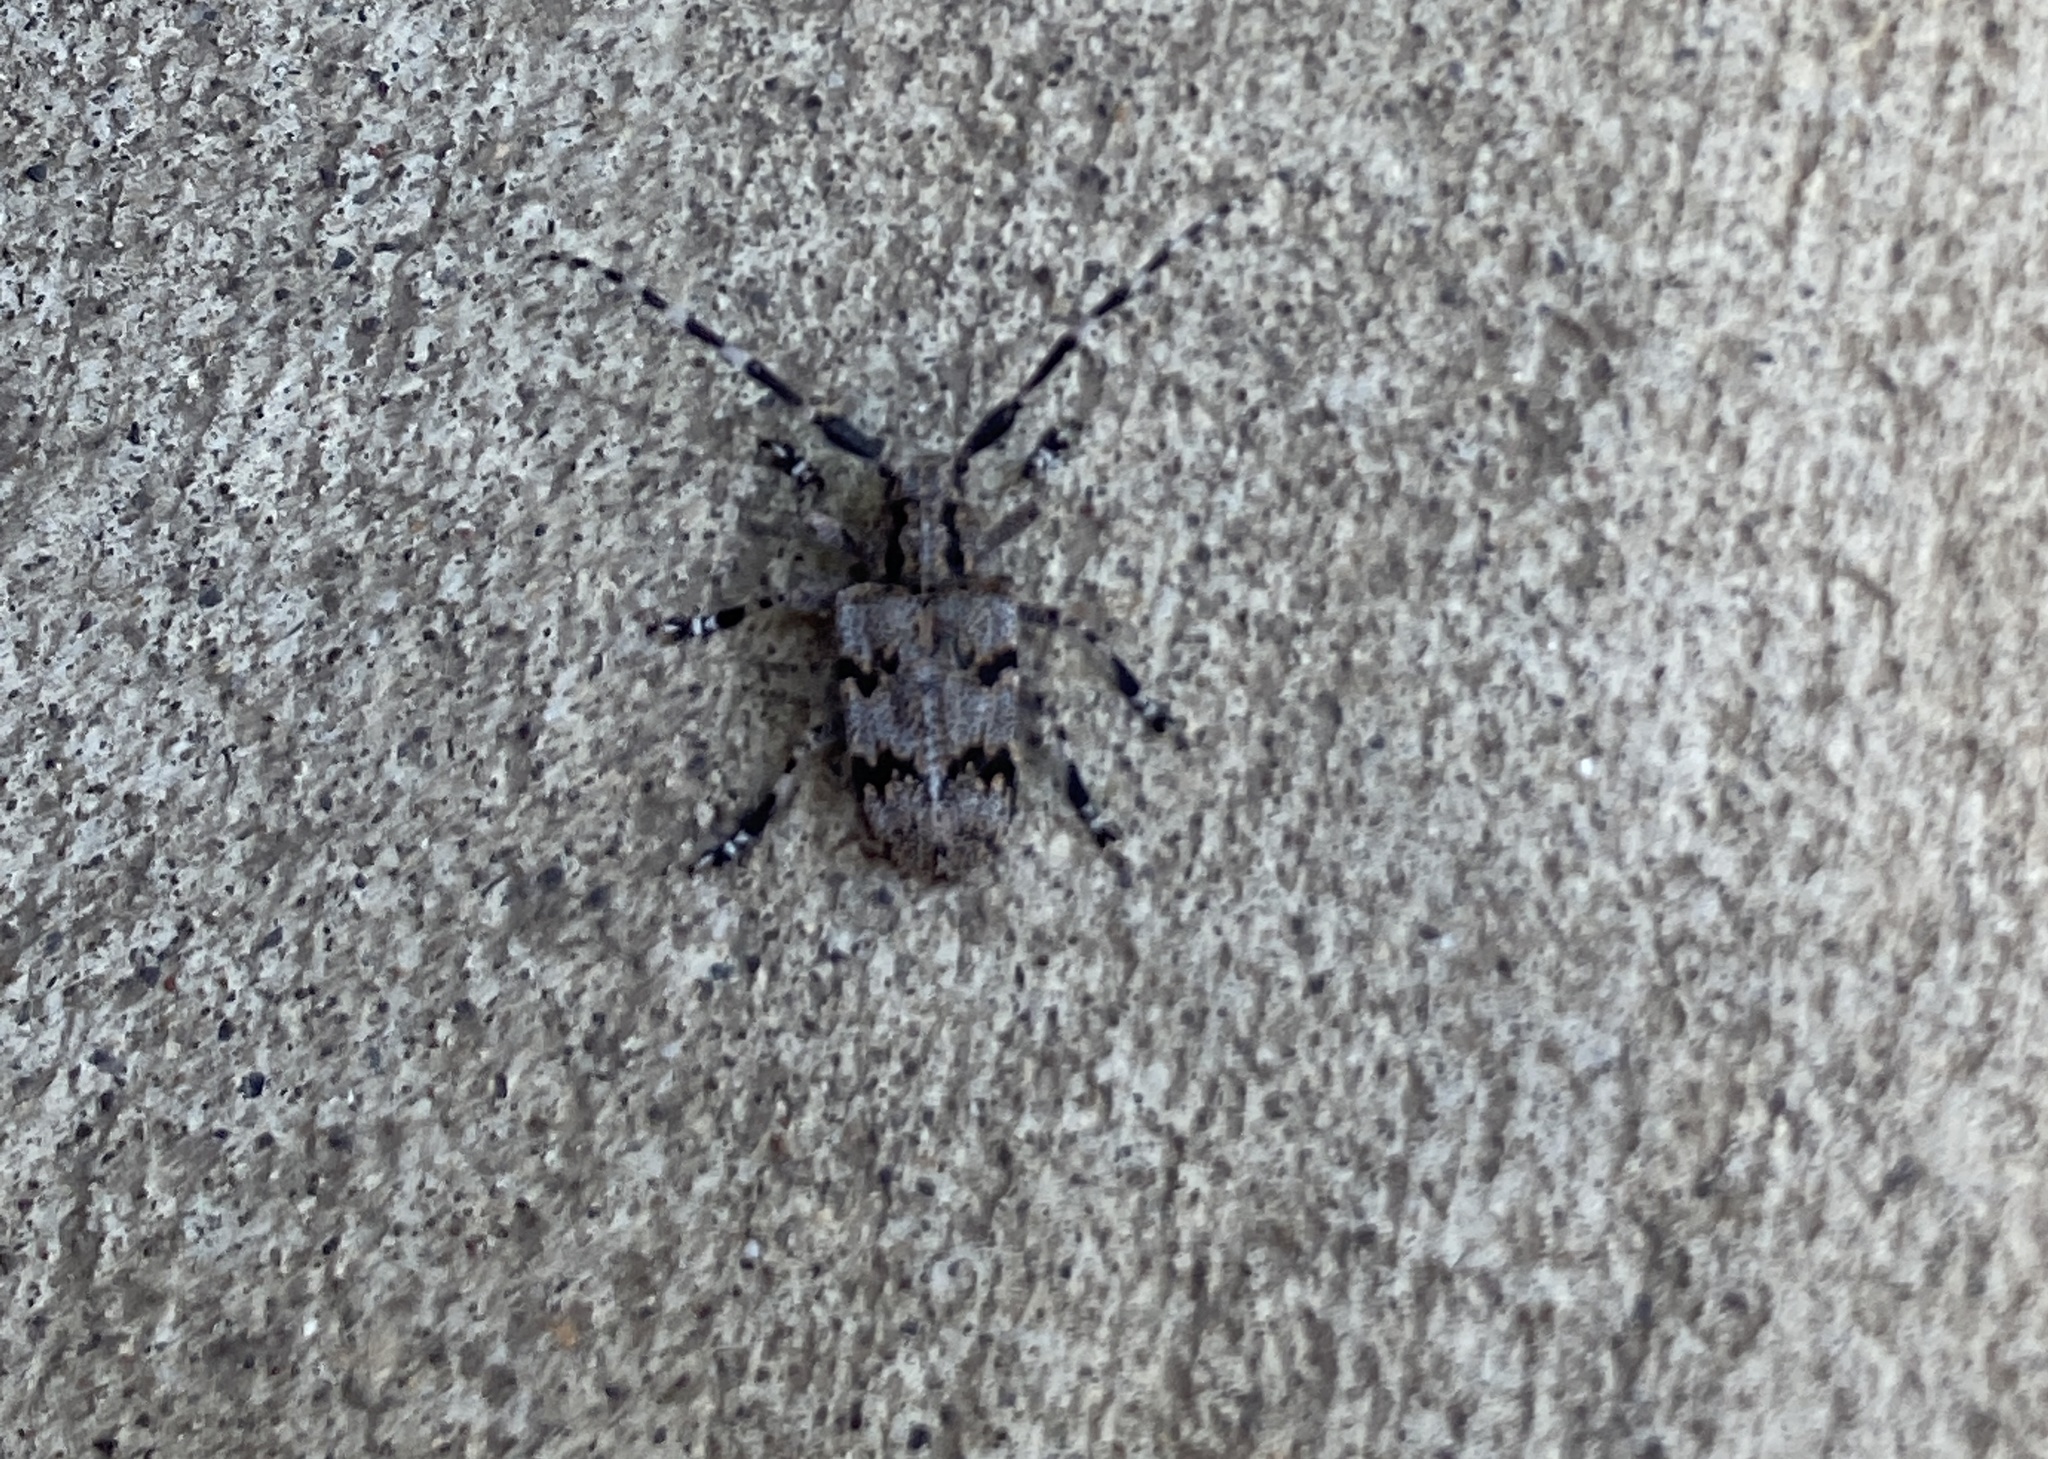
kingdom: Animalia
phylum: Arthropoda
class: Insecta
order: Coleoptera
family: Cerambycidae
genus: Synaphaeta
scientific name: Synaphaeta guexi
